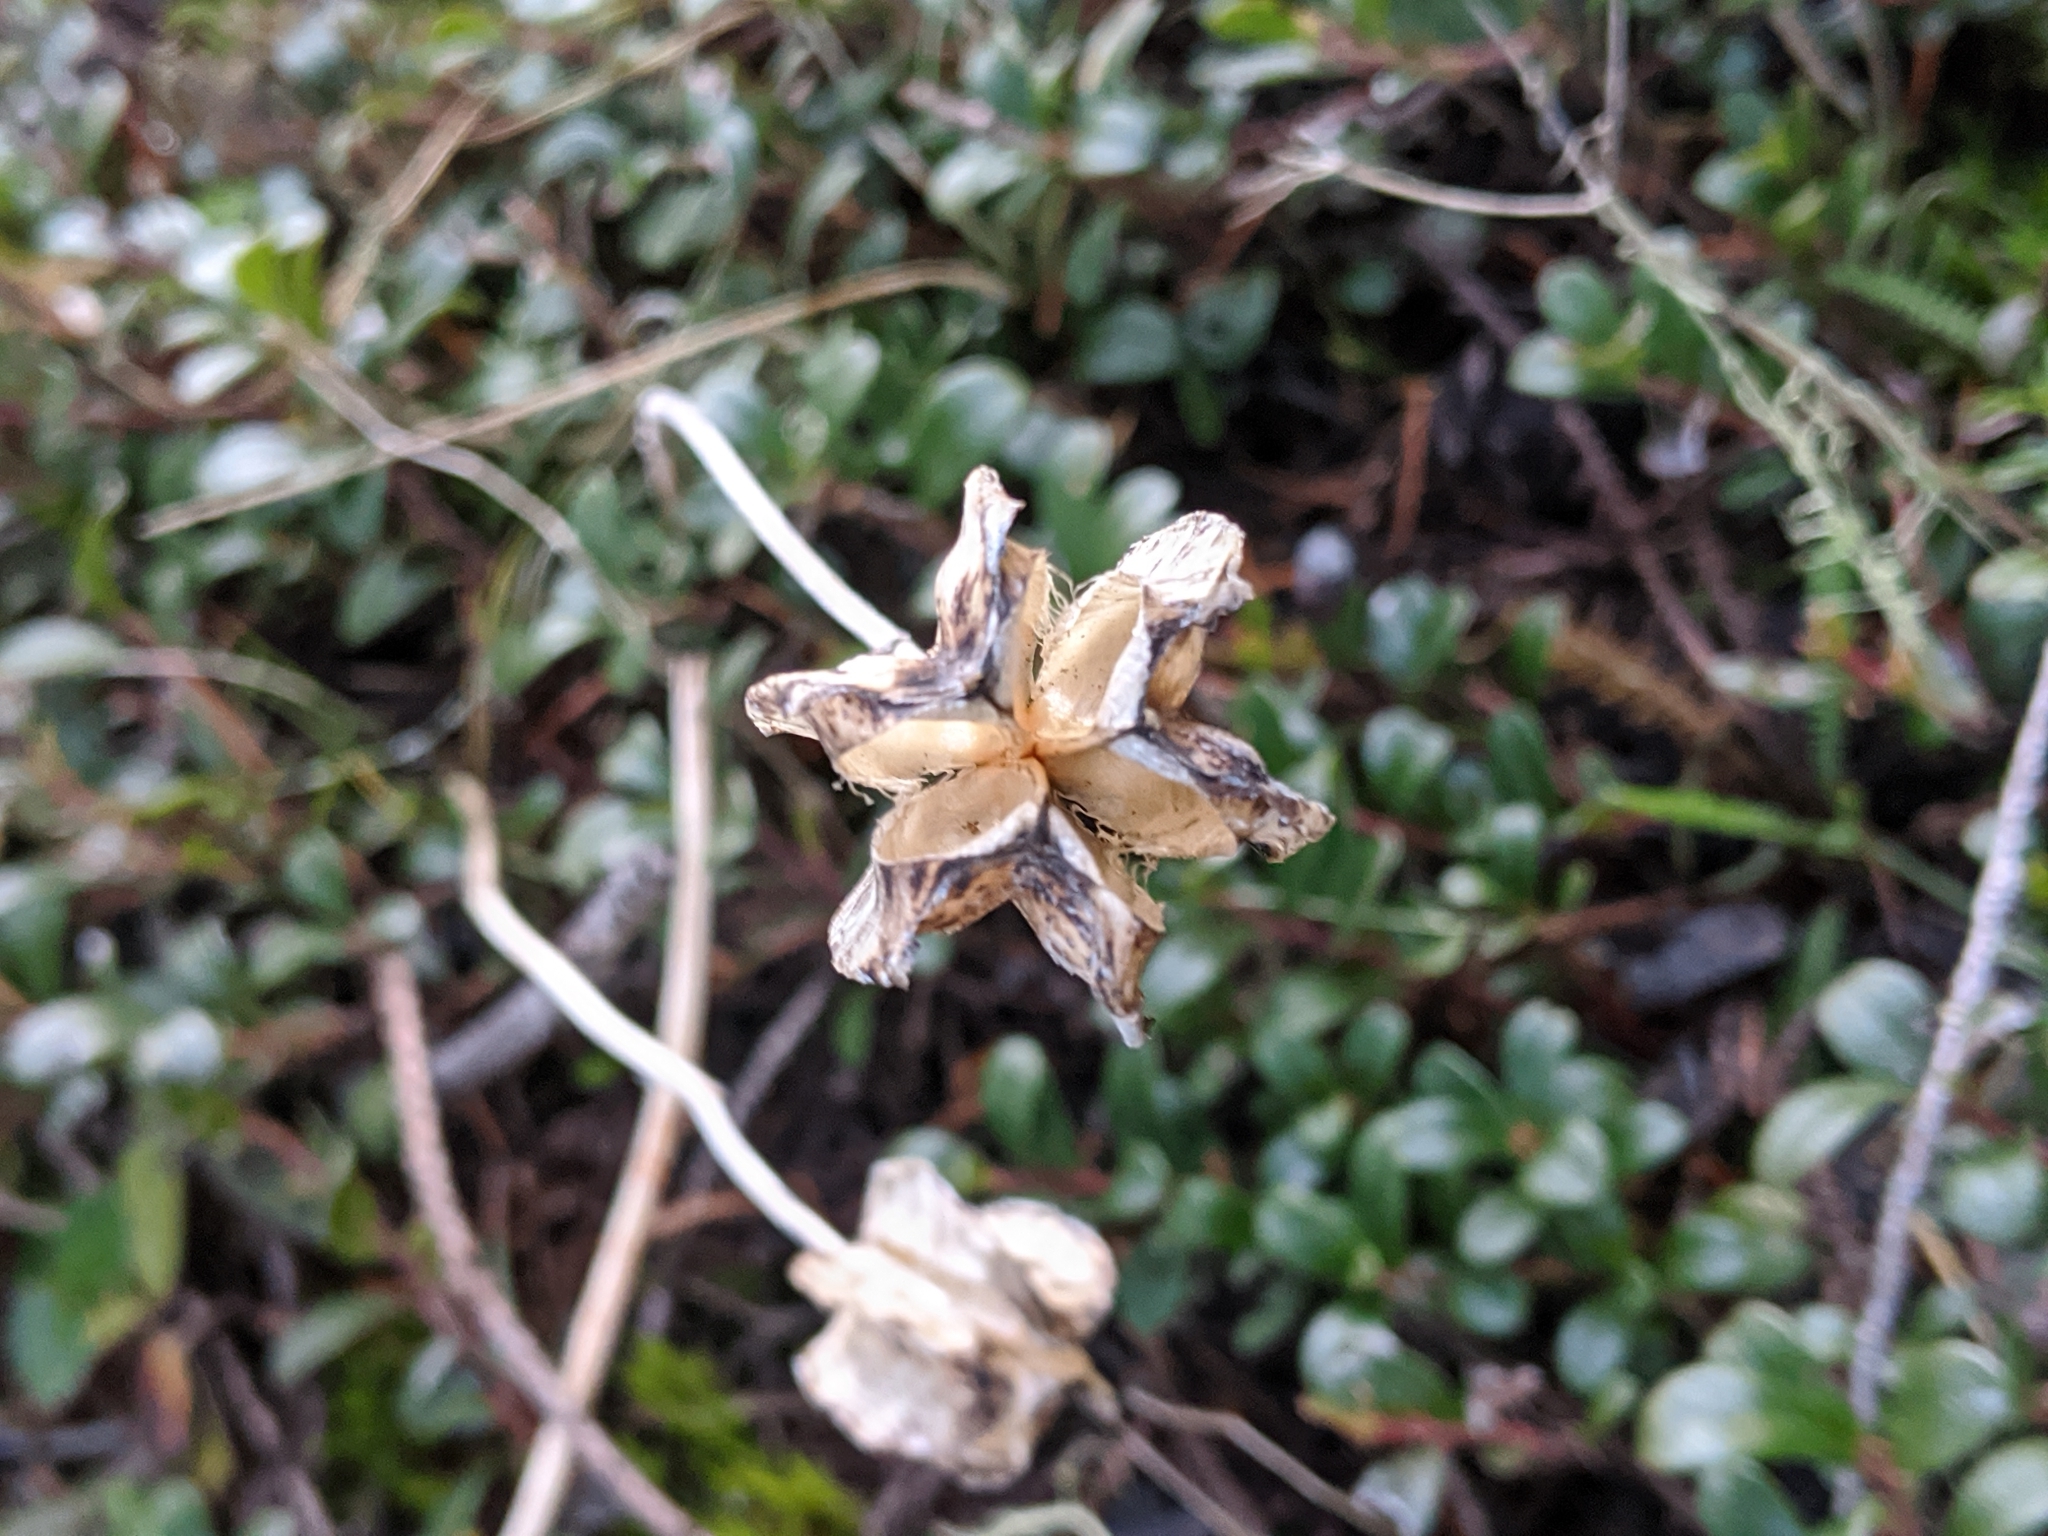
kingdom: Plantae
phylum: Tracheophyta
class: Liliopsida
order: Liliales
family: Liliaceae
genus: Fritillaria
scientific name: Fritillaria affinis
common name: Ojai fritillary
